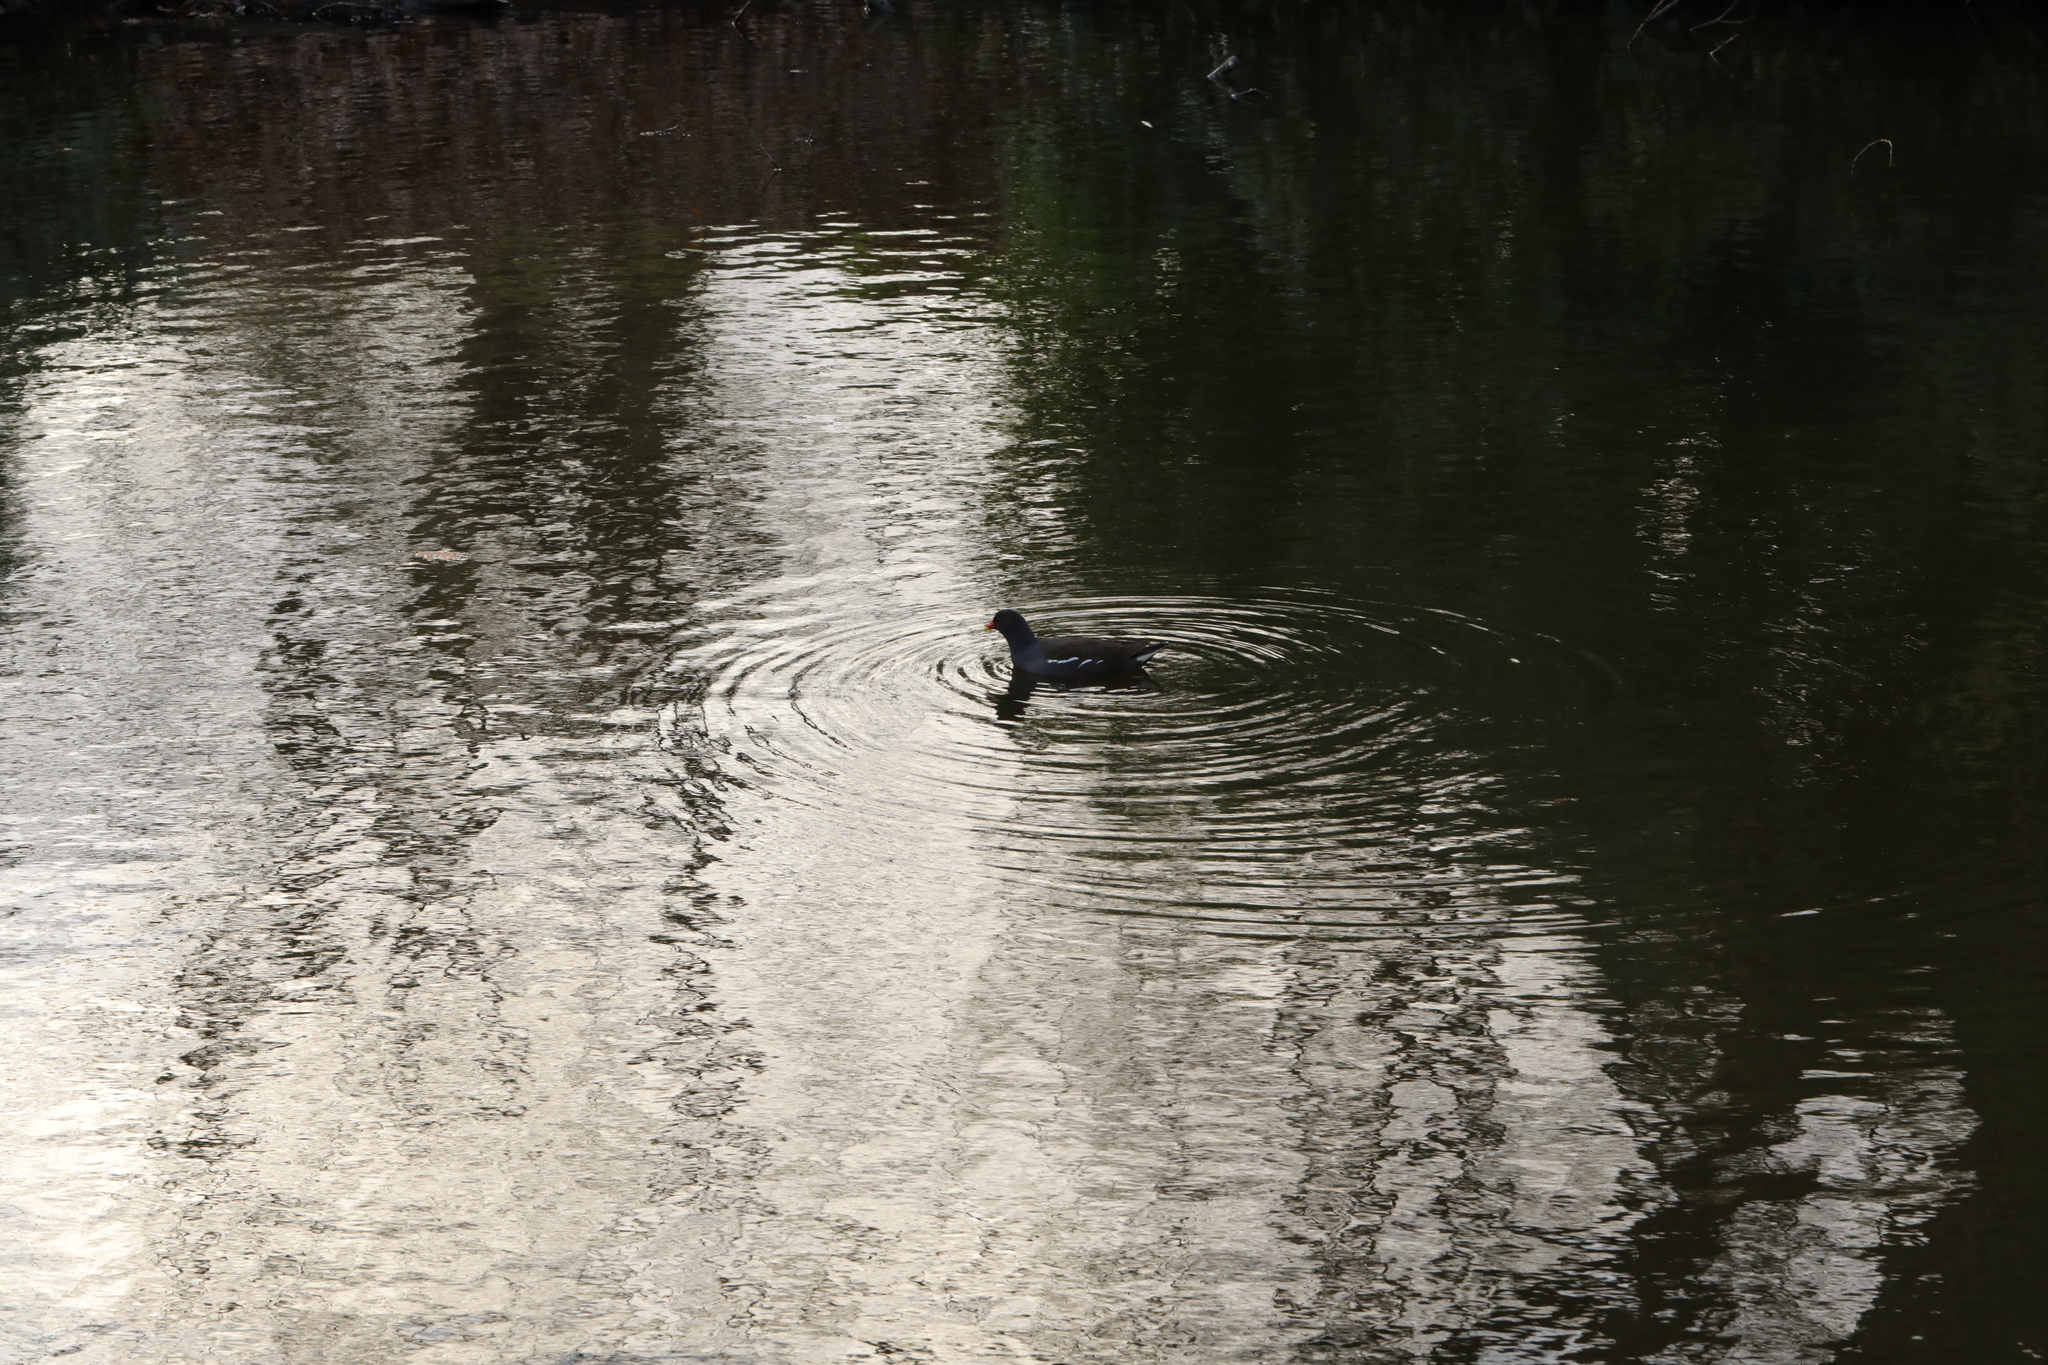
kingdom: Animalia
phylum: Chordata
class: Aves
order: Gruiformes
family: Rallidae
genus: Gallinula
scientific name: Gallinula chloropus
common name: Common moorhen
